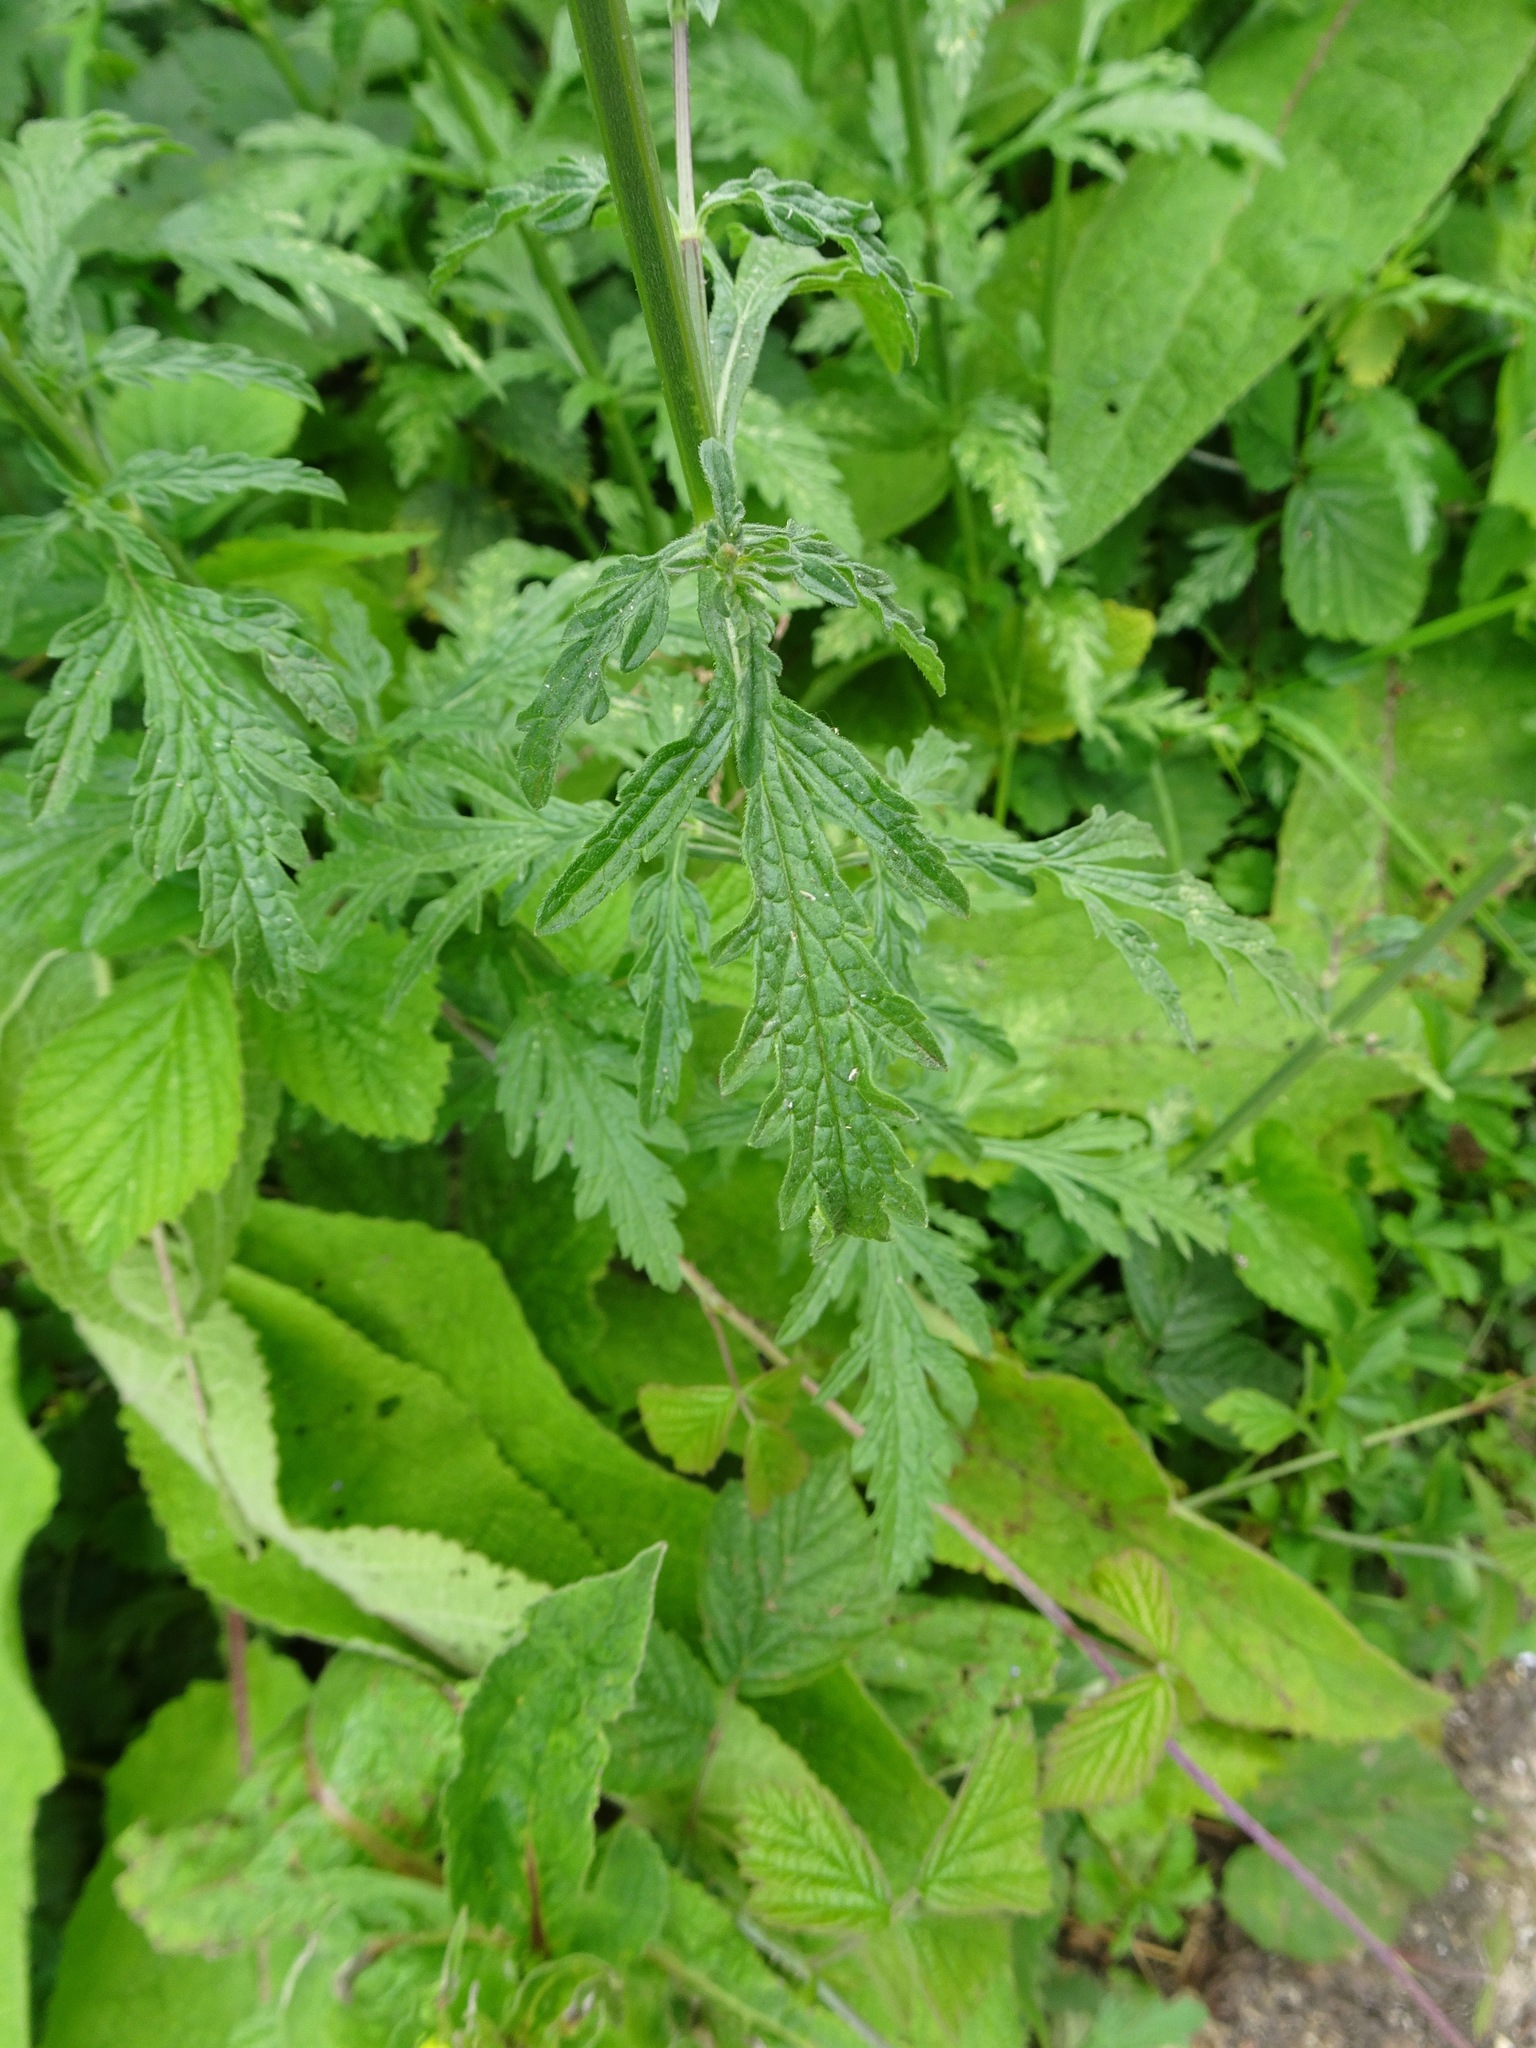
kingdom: Plantae
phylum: Tracheophyta
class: Magnoliopsida
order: Lamiales
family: Verbenaceae
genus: Verbena
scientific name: Verbena officinalis
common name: Vervain
